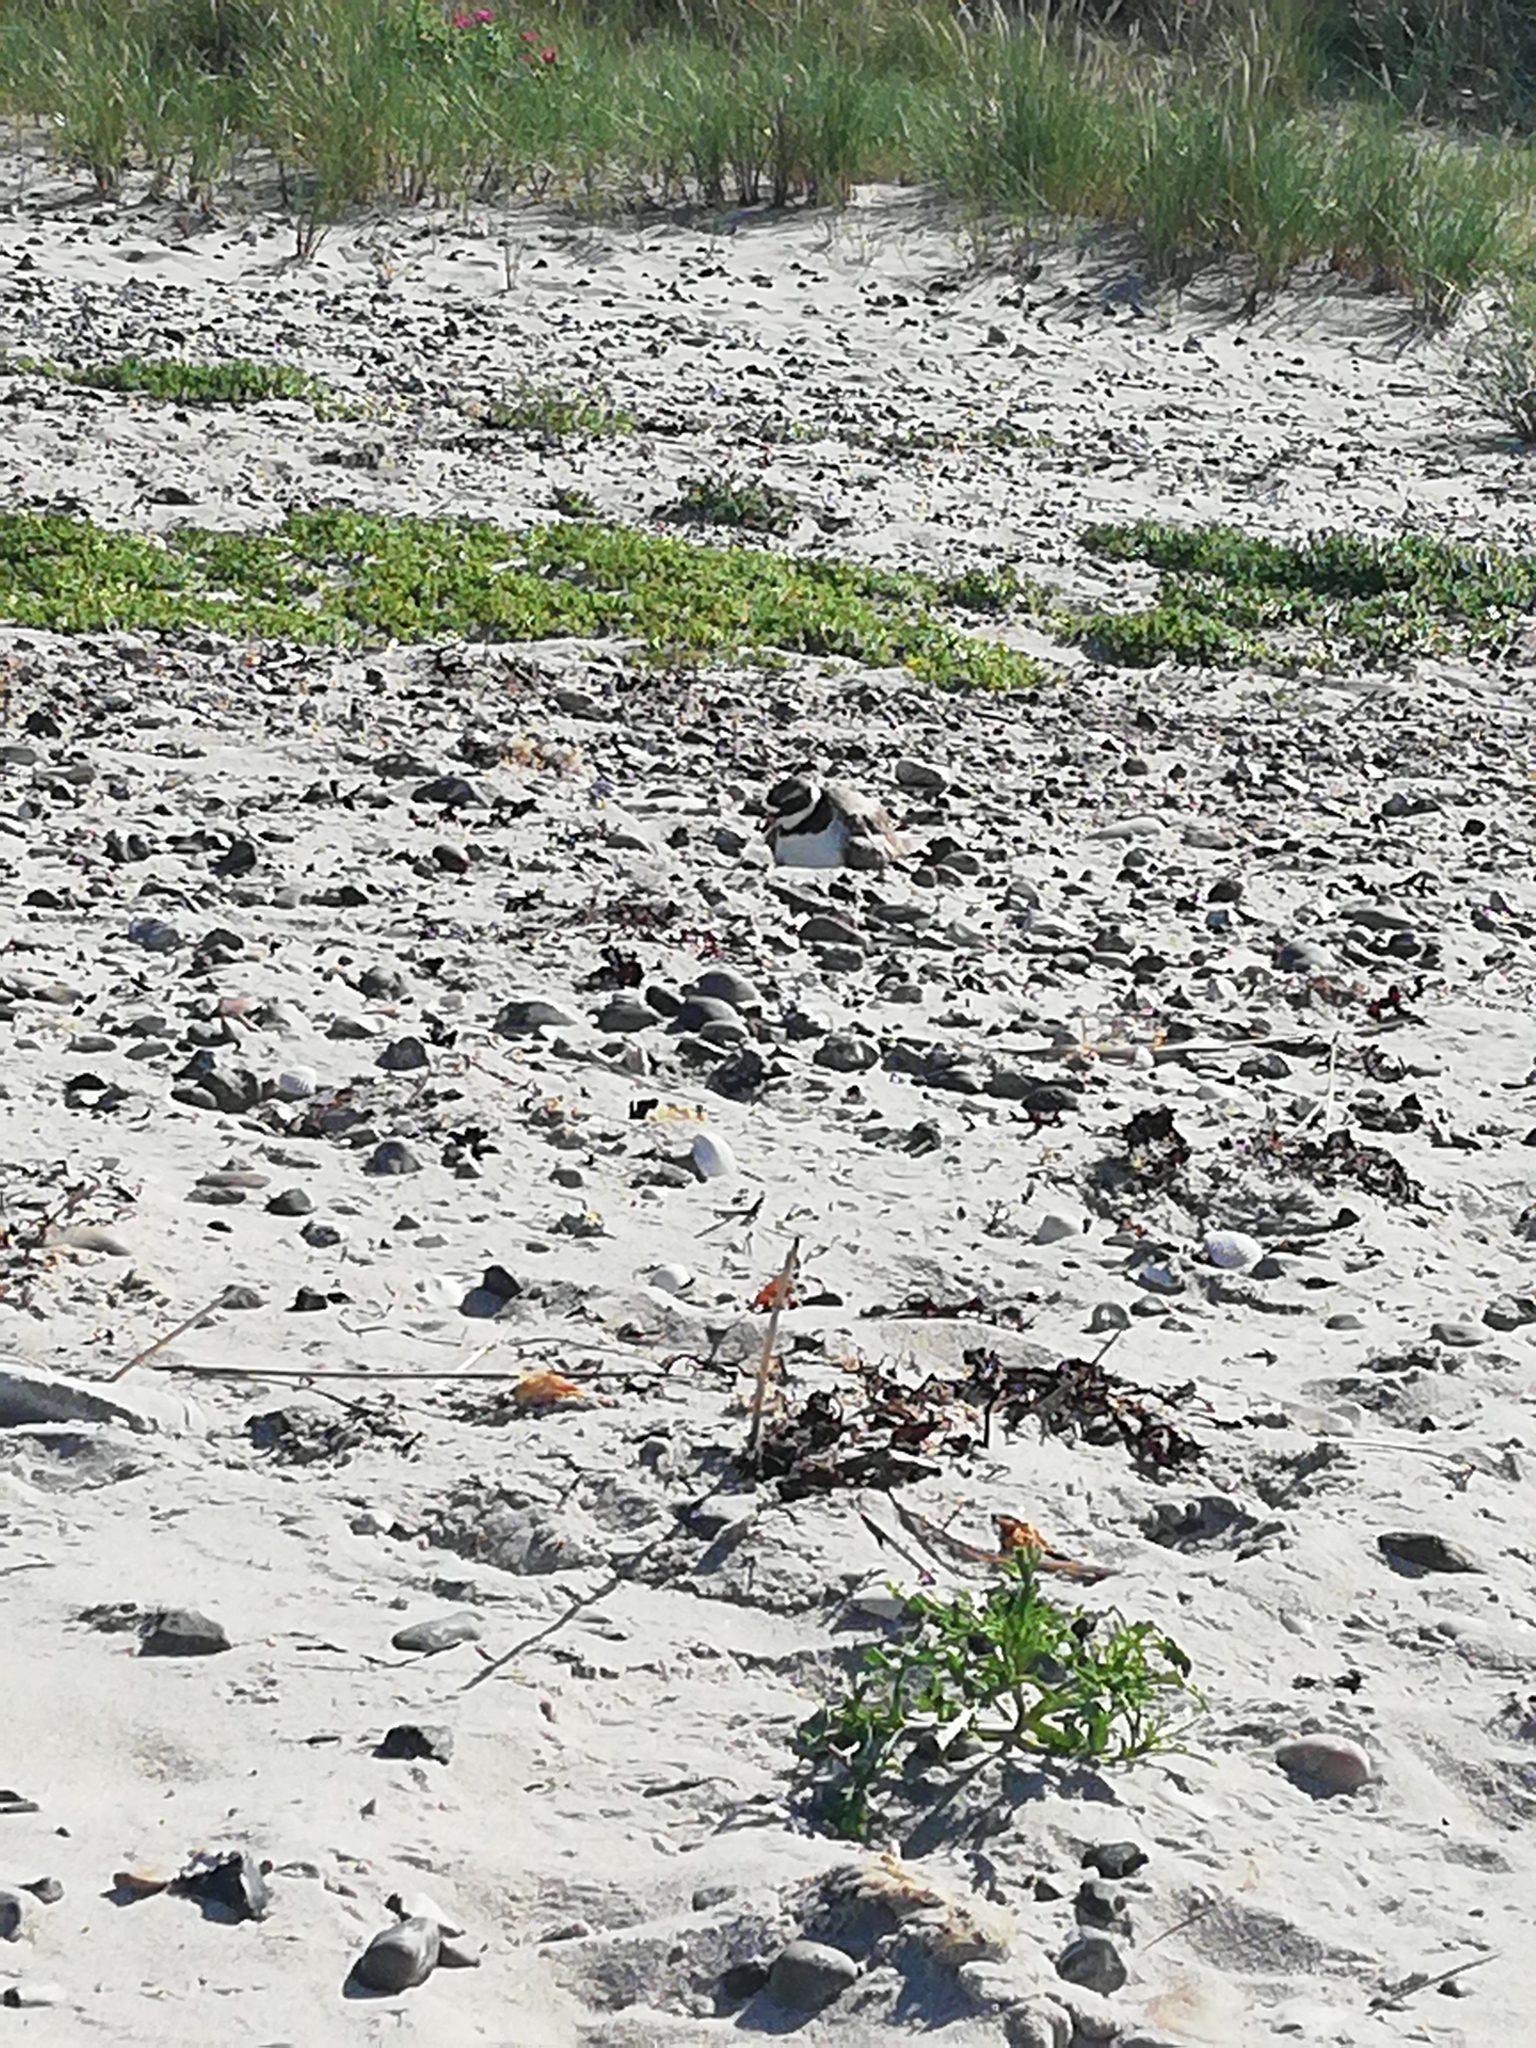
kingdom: Animalia
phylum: Chordata
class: Aves
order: Charadriiformes
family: Charadriidae
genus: Charadrius
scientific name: Charadrius hiaticula
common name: Common ringed plover
